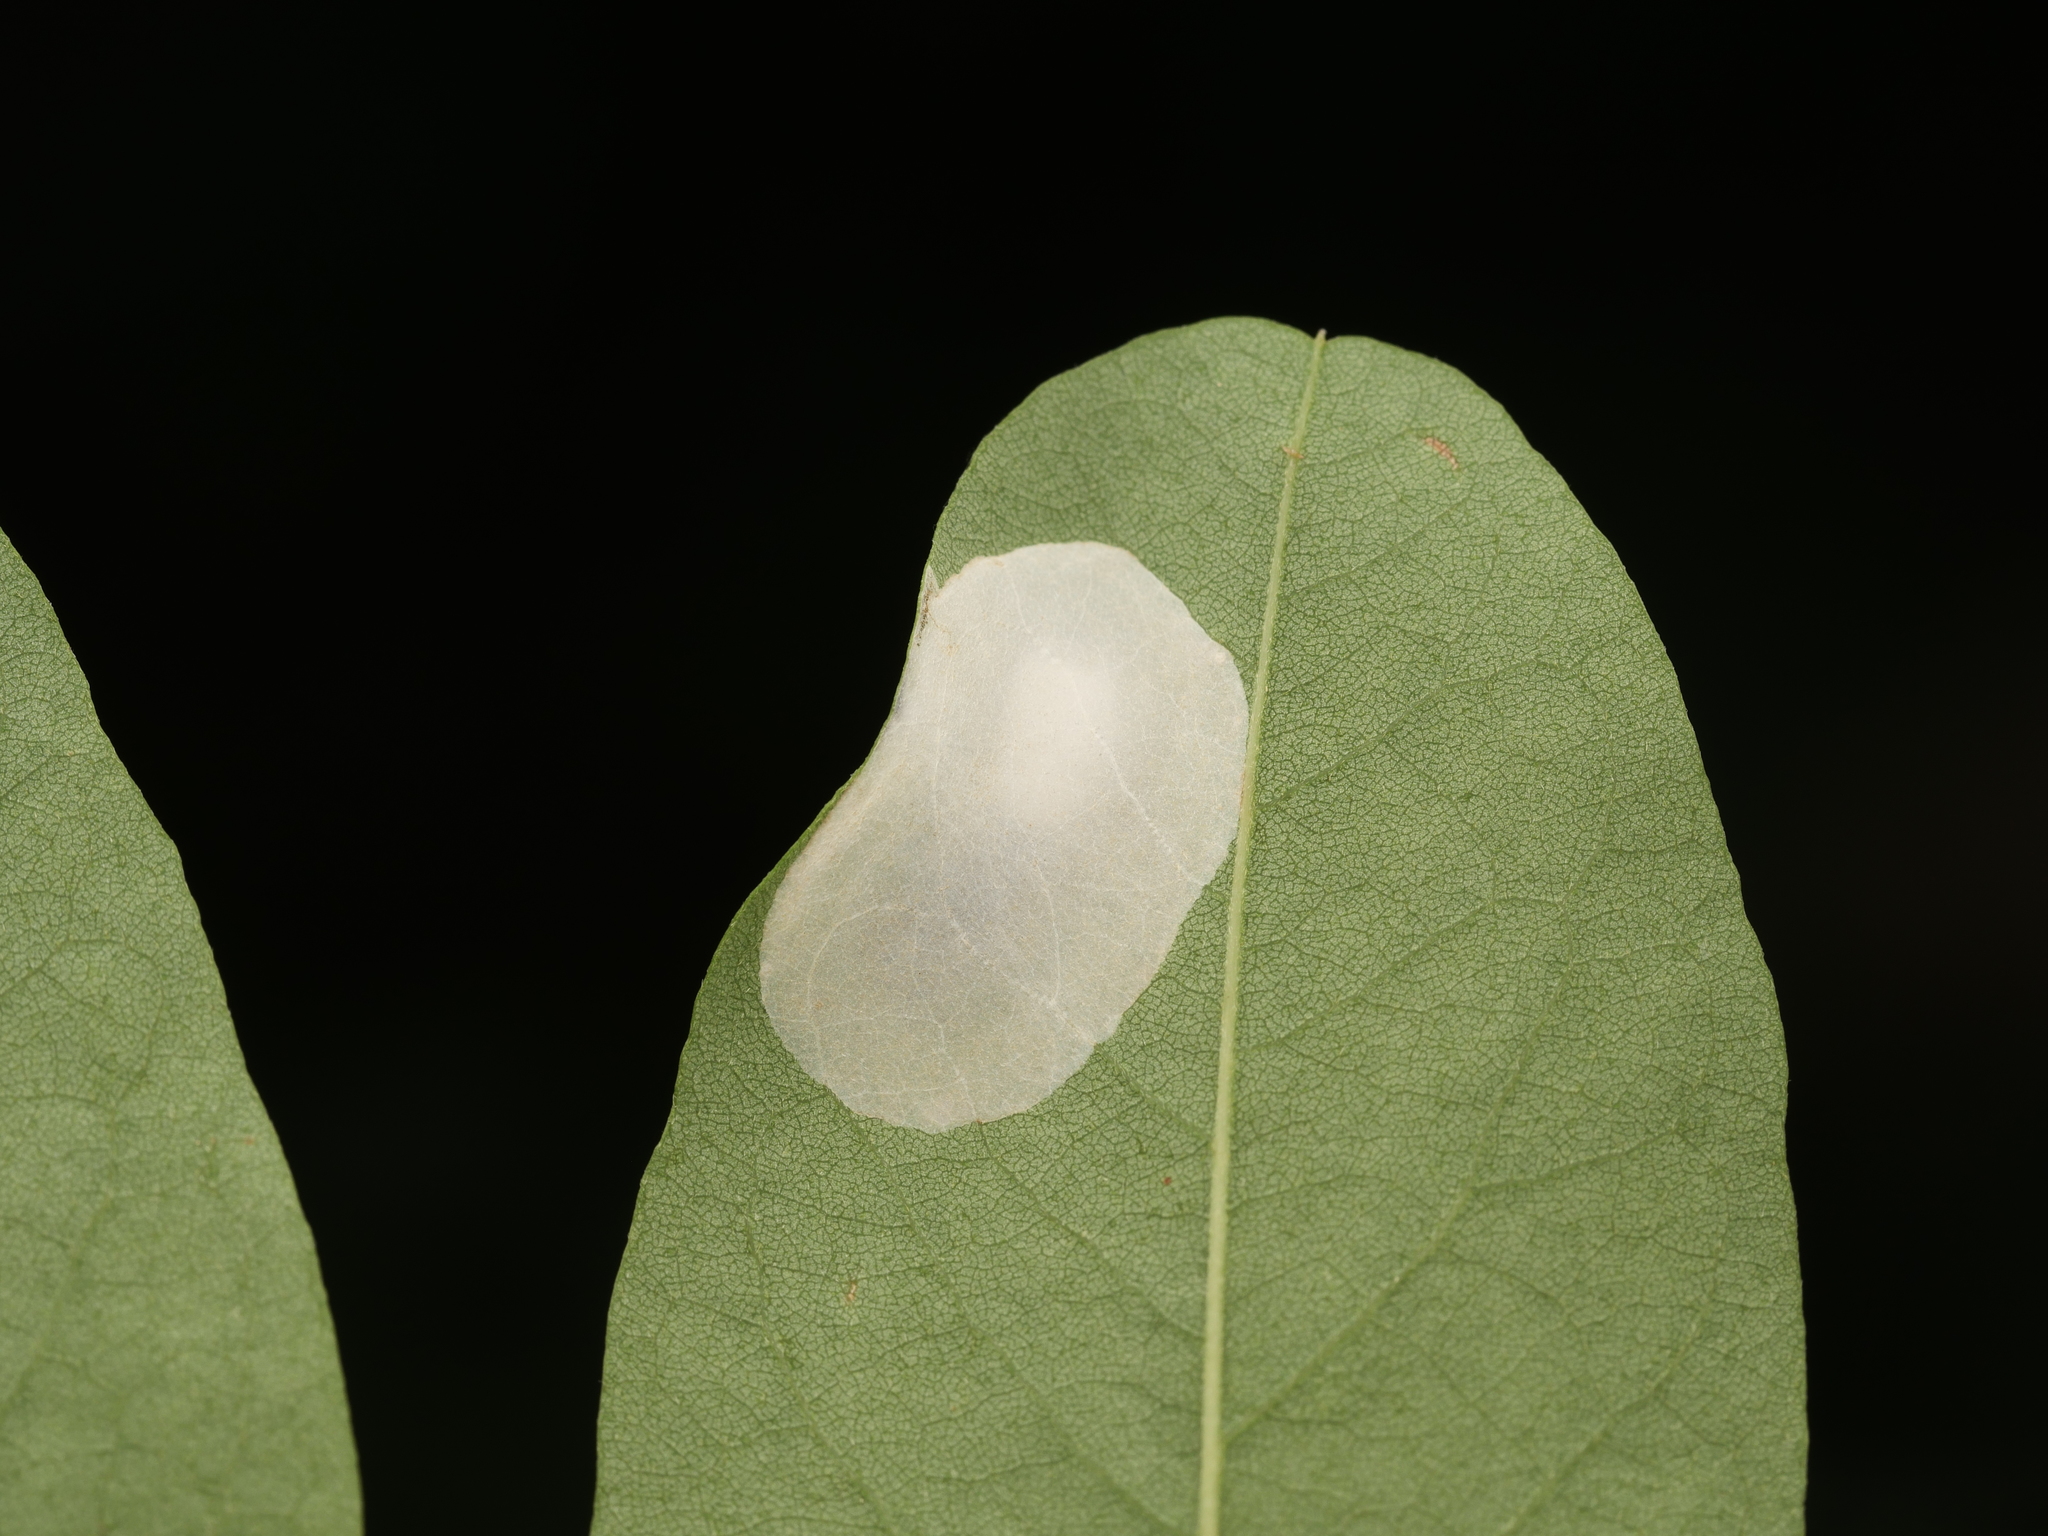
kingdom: Animalia
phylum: Arthropoda
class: Insecta
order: Lepidoptera
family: Gracillariidae
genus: Macrosaccus
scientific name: Macrosaccus robiniella
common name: Leaf blotch miner moth
